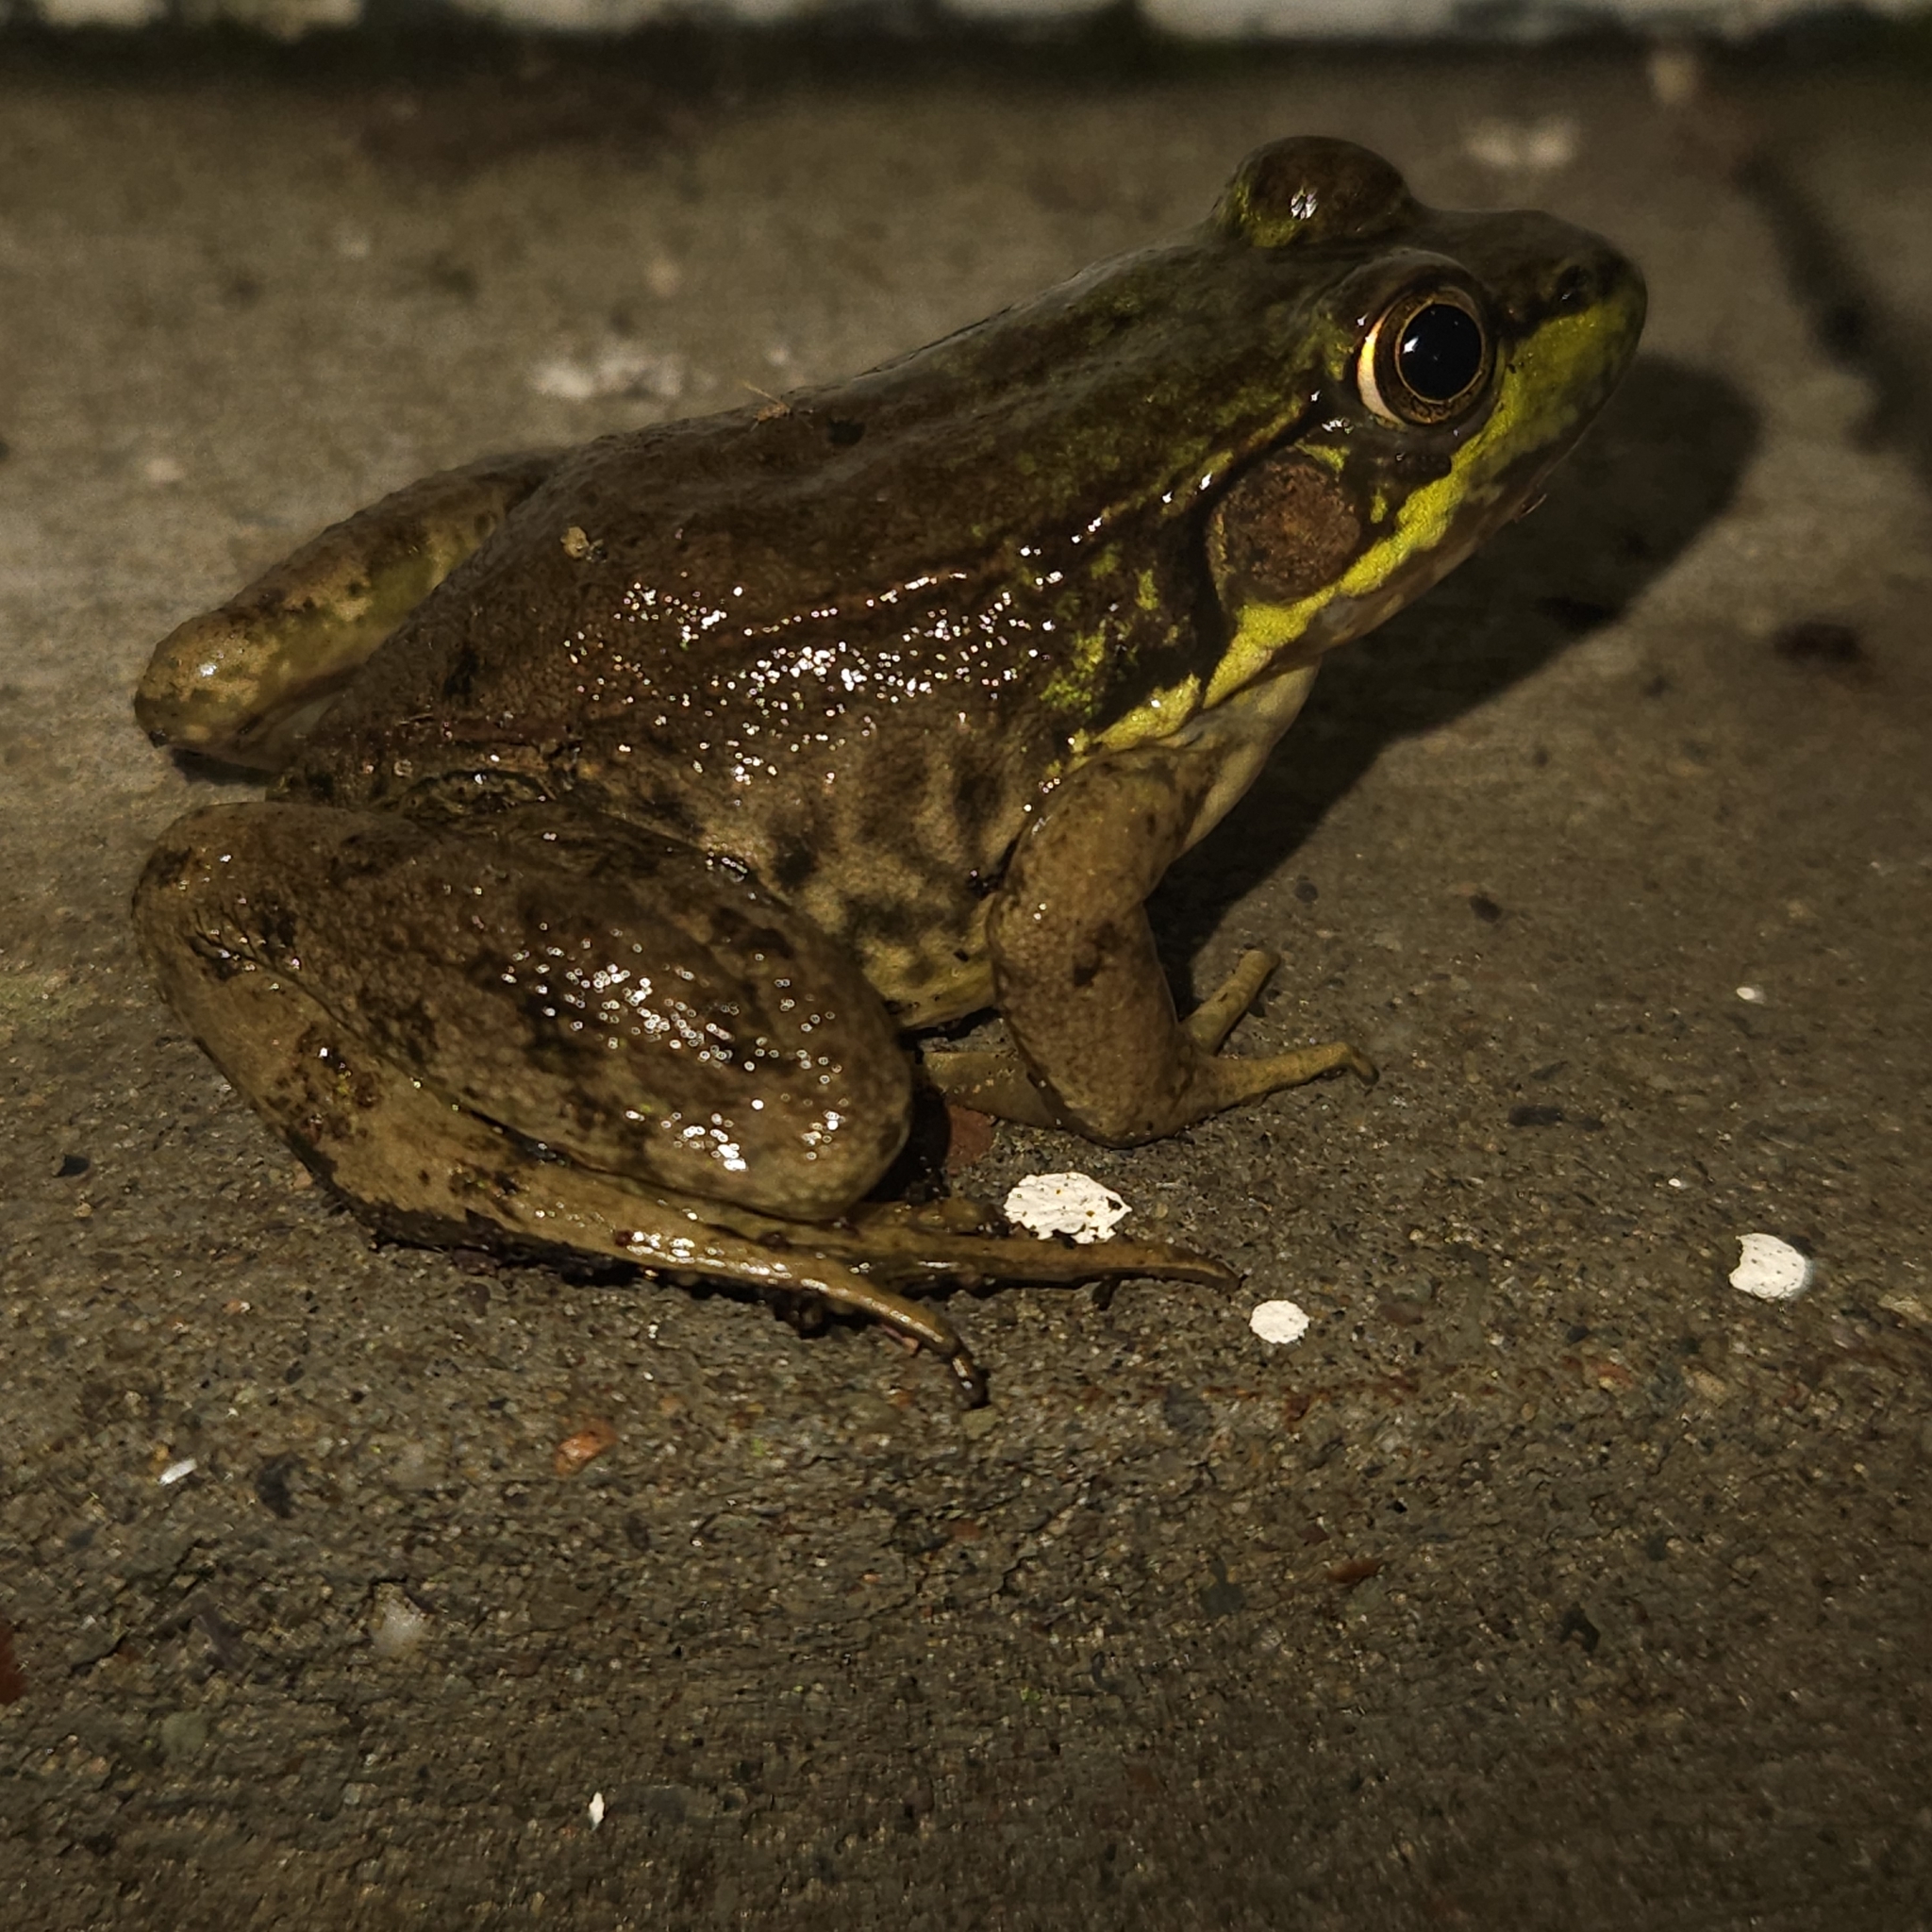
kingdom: Animalia
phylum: Chordata
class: Amphibia
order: Anura
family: Ranidae
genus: Lithobates
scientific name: Lithobates clamitans
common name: Green frog
